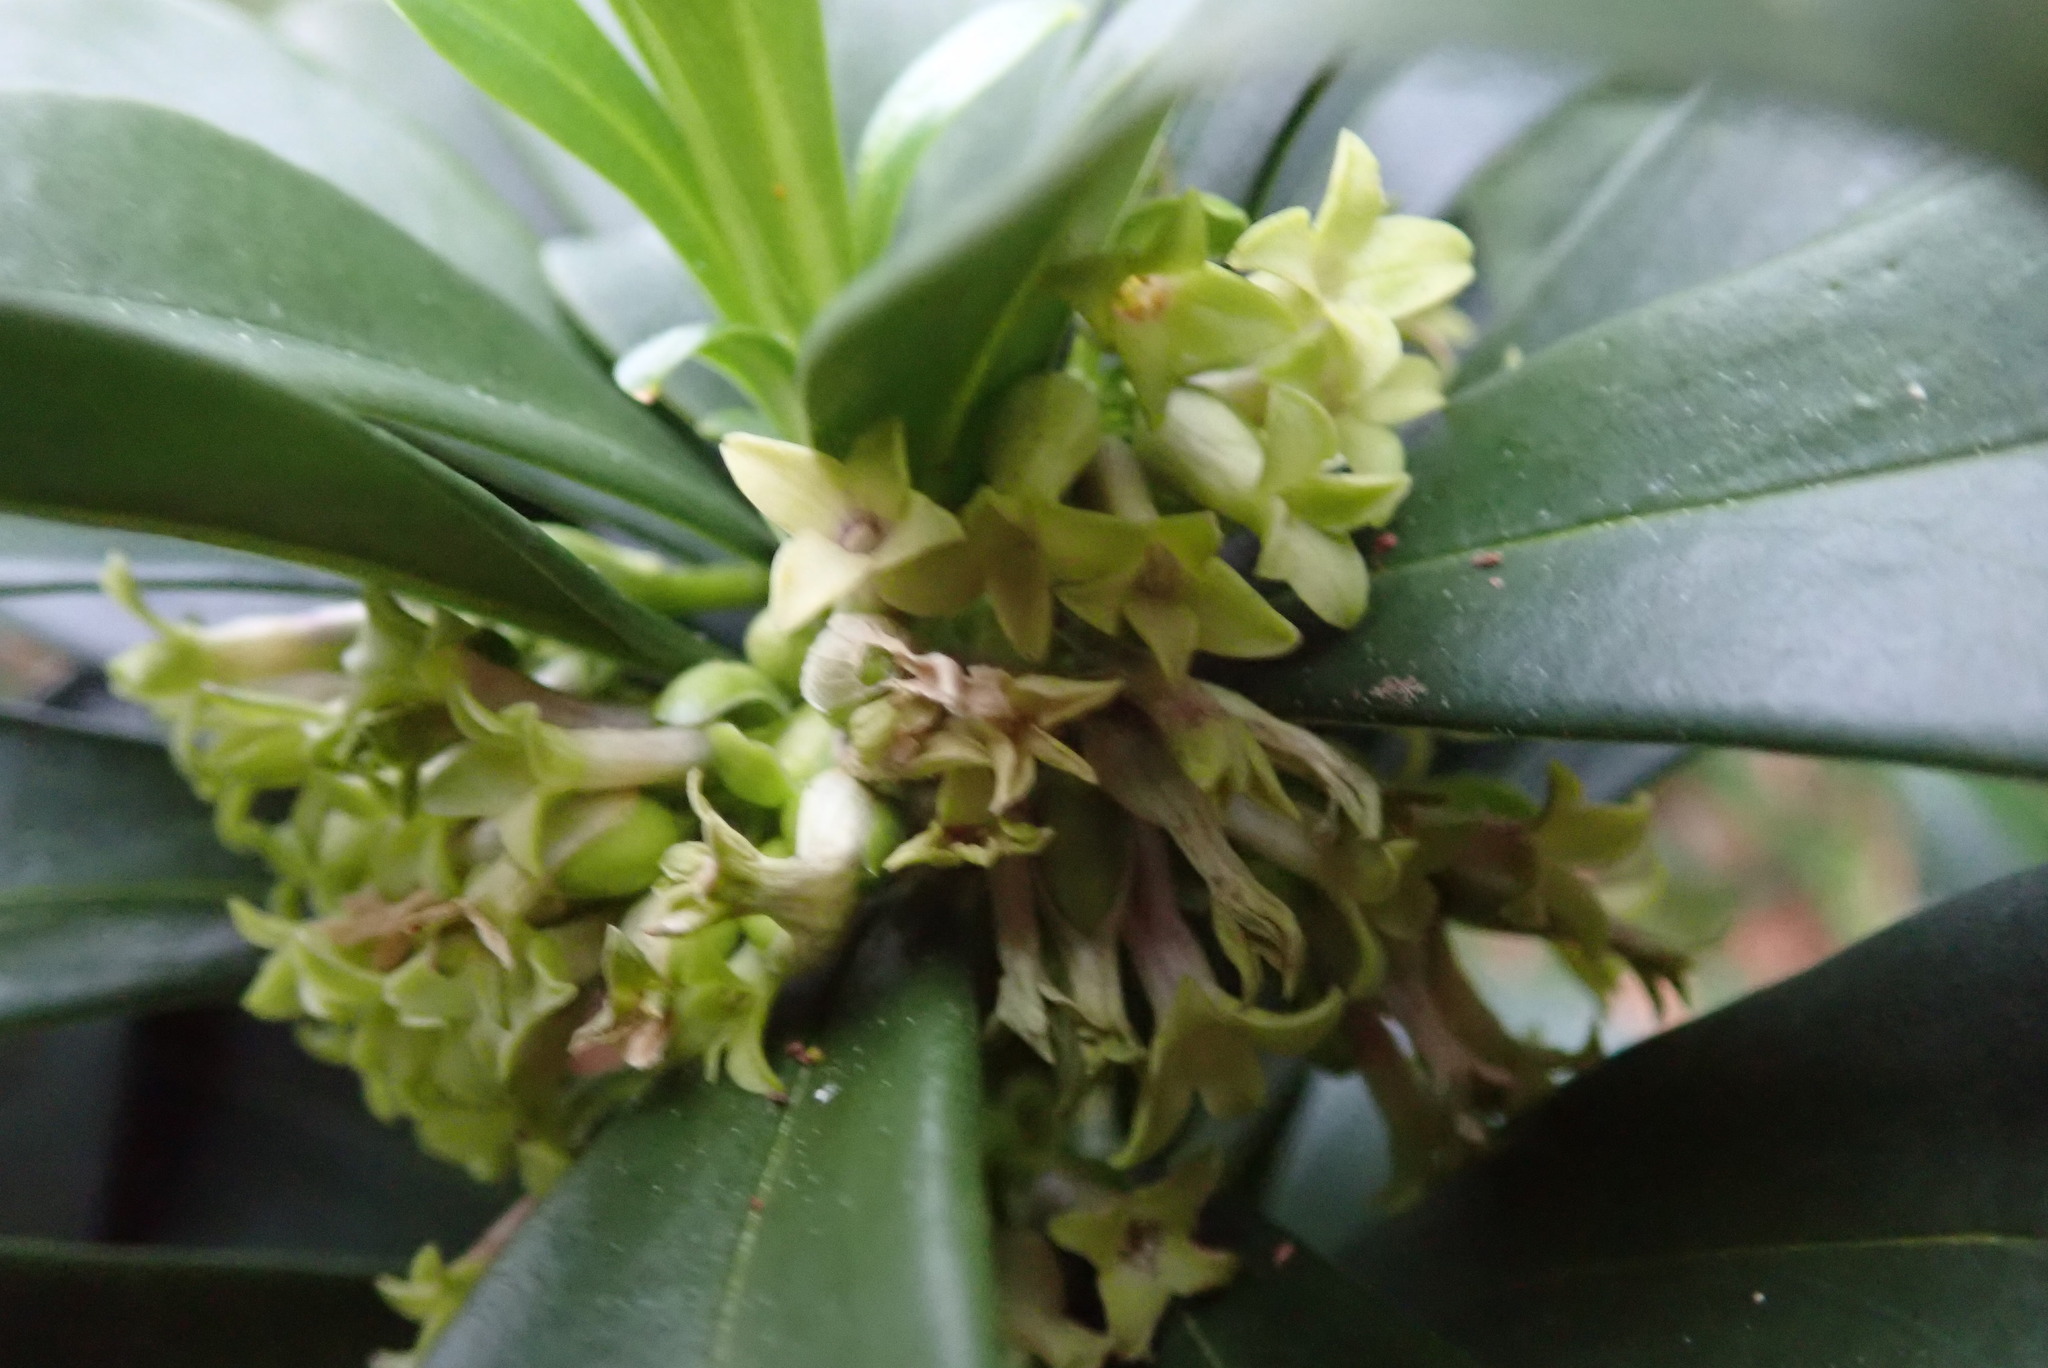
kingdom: Plantae
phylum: Tracheophyta
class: Magnoliopsida
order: Malvales
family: Thymelaeaceae
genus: Daphne
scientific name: Daphne laureola
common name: Spurge-laurel
